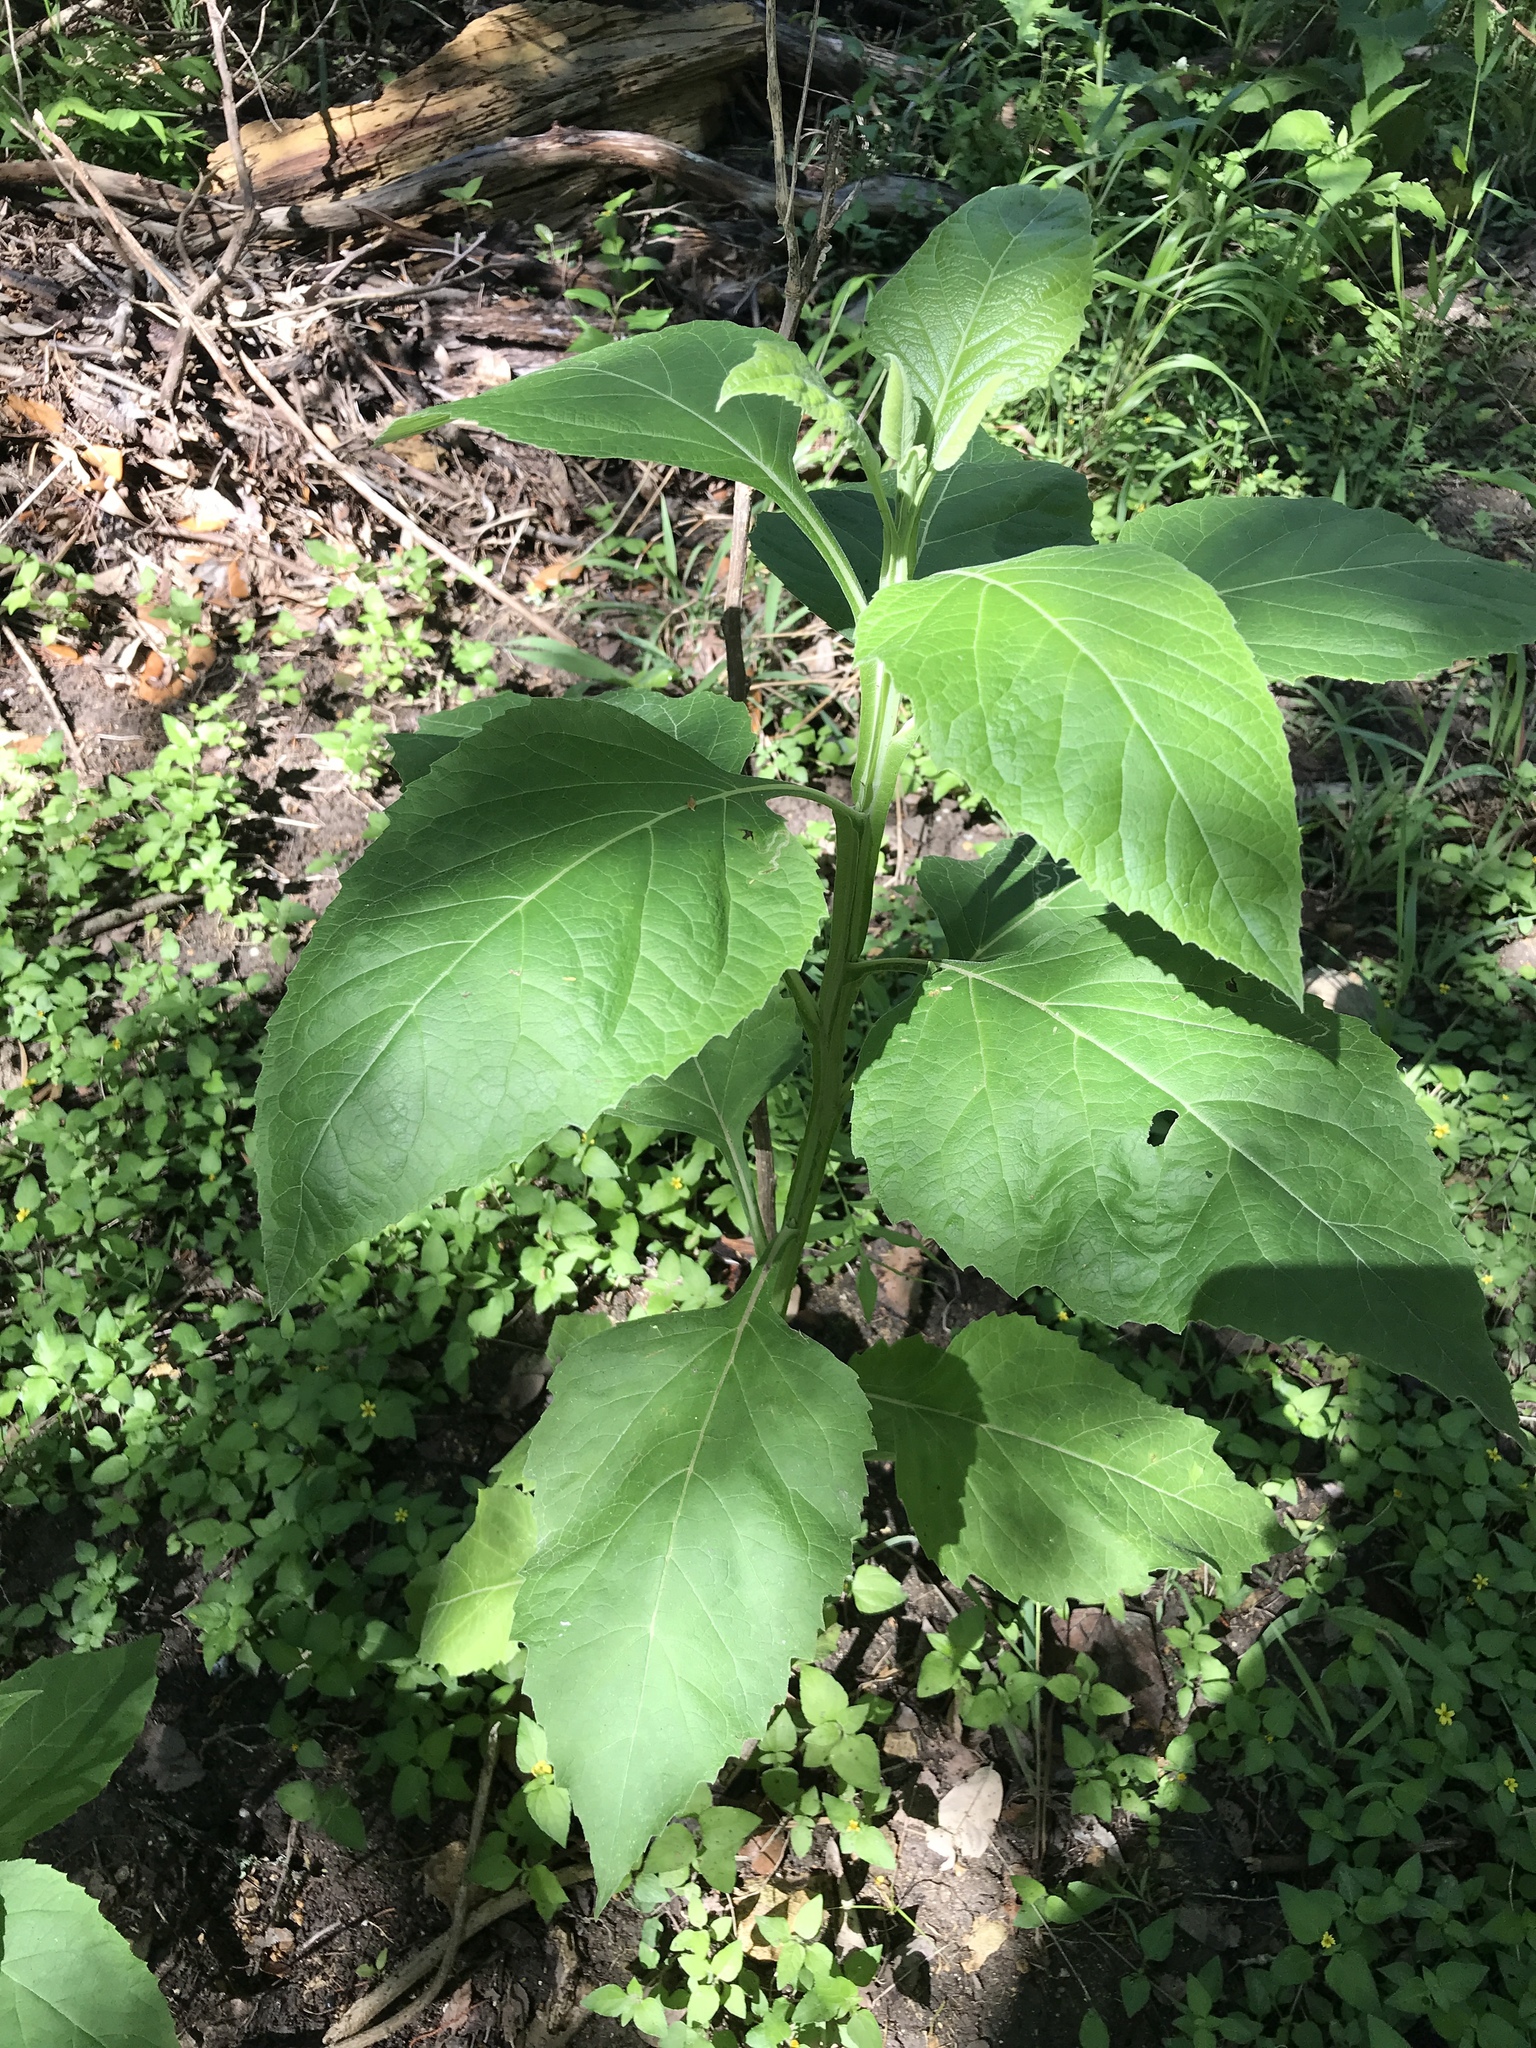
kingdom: Plantae
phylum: Tracheophyta
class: Magnoliopsida
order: Asterales
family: Asteraceae
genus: Verbesina
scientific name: Verbesina virginica
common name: Frostweed
